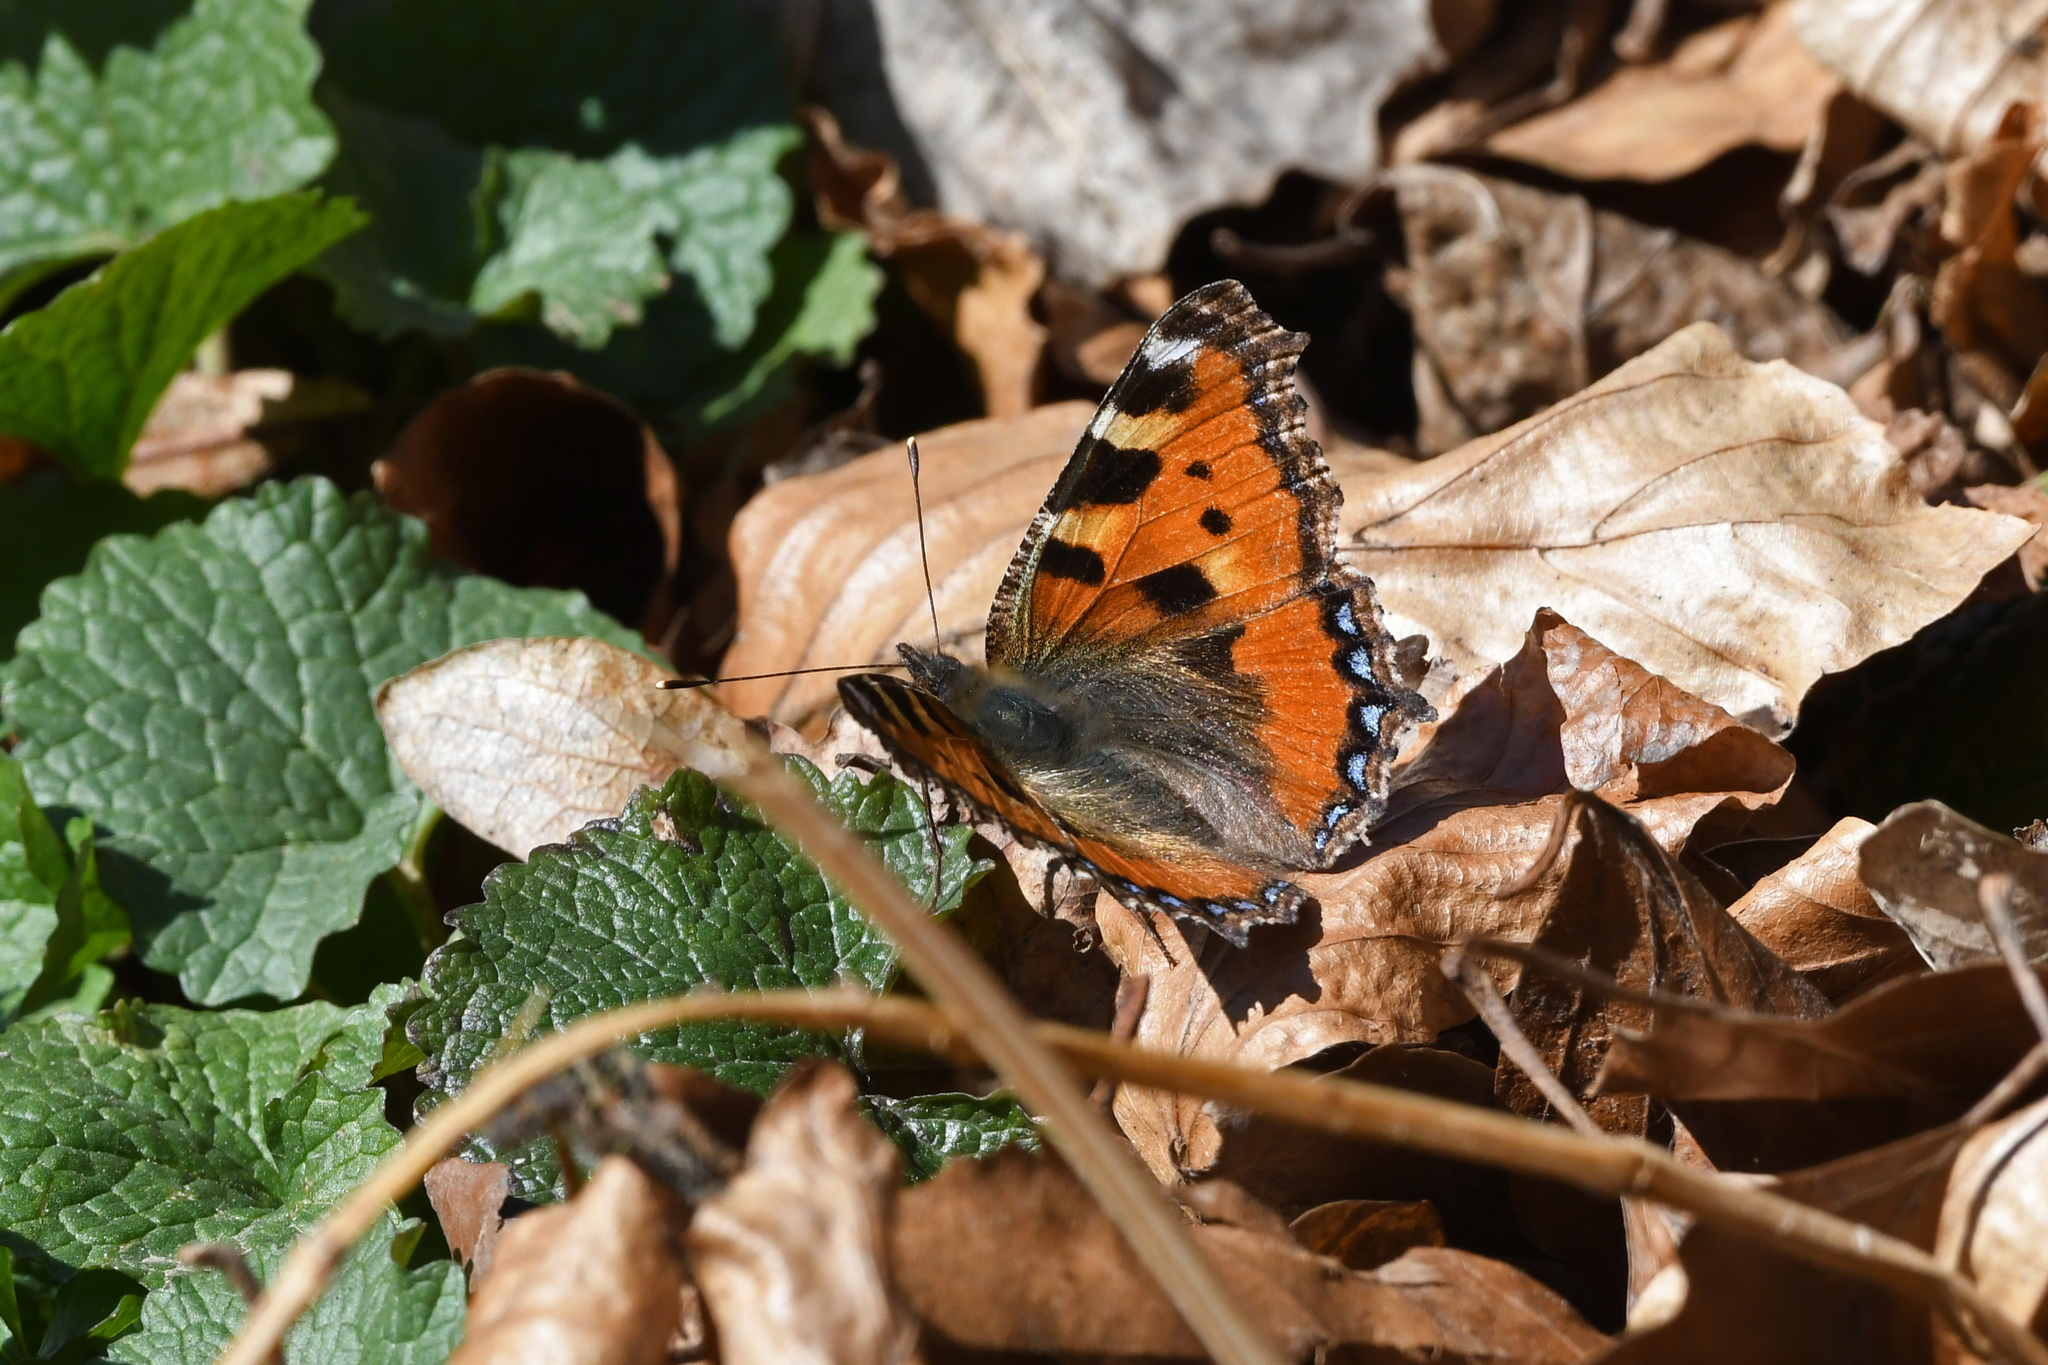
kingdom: Animalia
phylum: Arthropoda
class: Insecta
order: Lepidoptera
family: Nymphalidae
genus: Aglais
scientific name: Aglais urticae
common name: Small tortoiseshell
